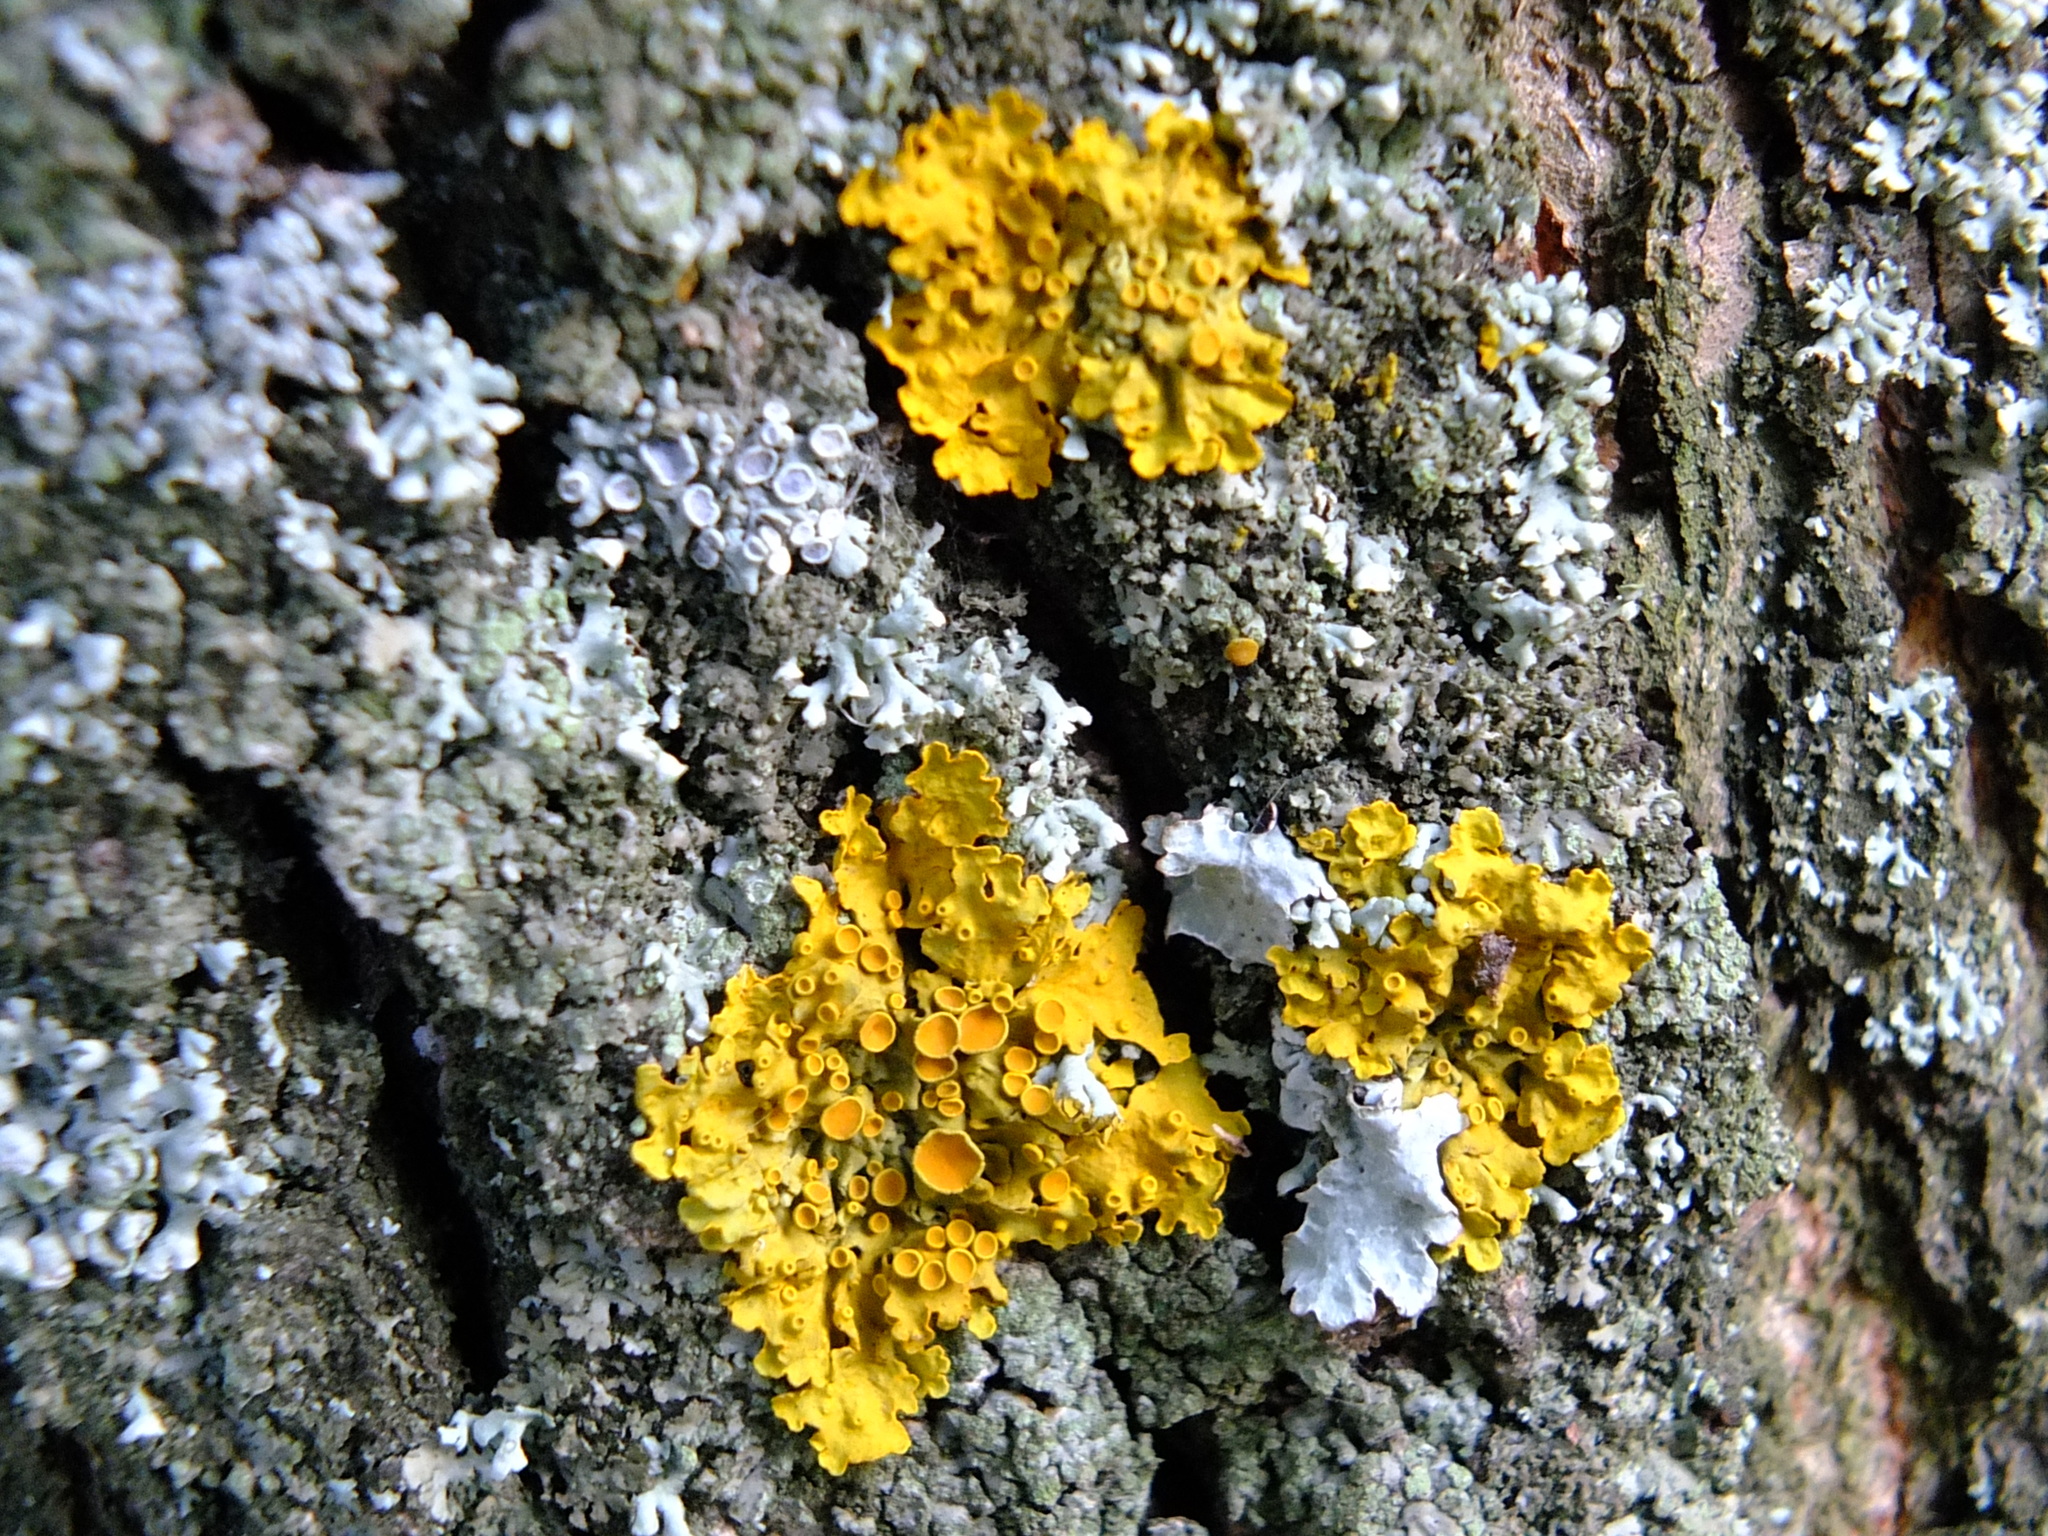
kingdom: Fungi
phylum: Ascomycota
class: Lecanoromycetes
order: Teloschistales
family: Teloschistaceae
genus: Xanthoria
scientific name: Xanthoria parietina
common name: Common orange lichen
